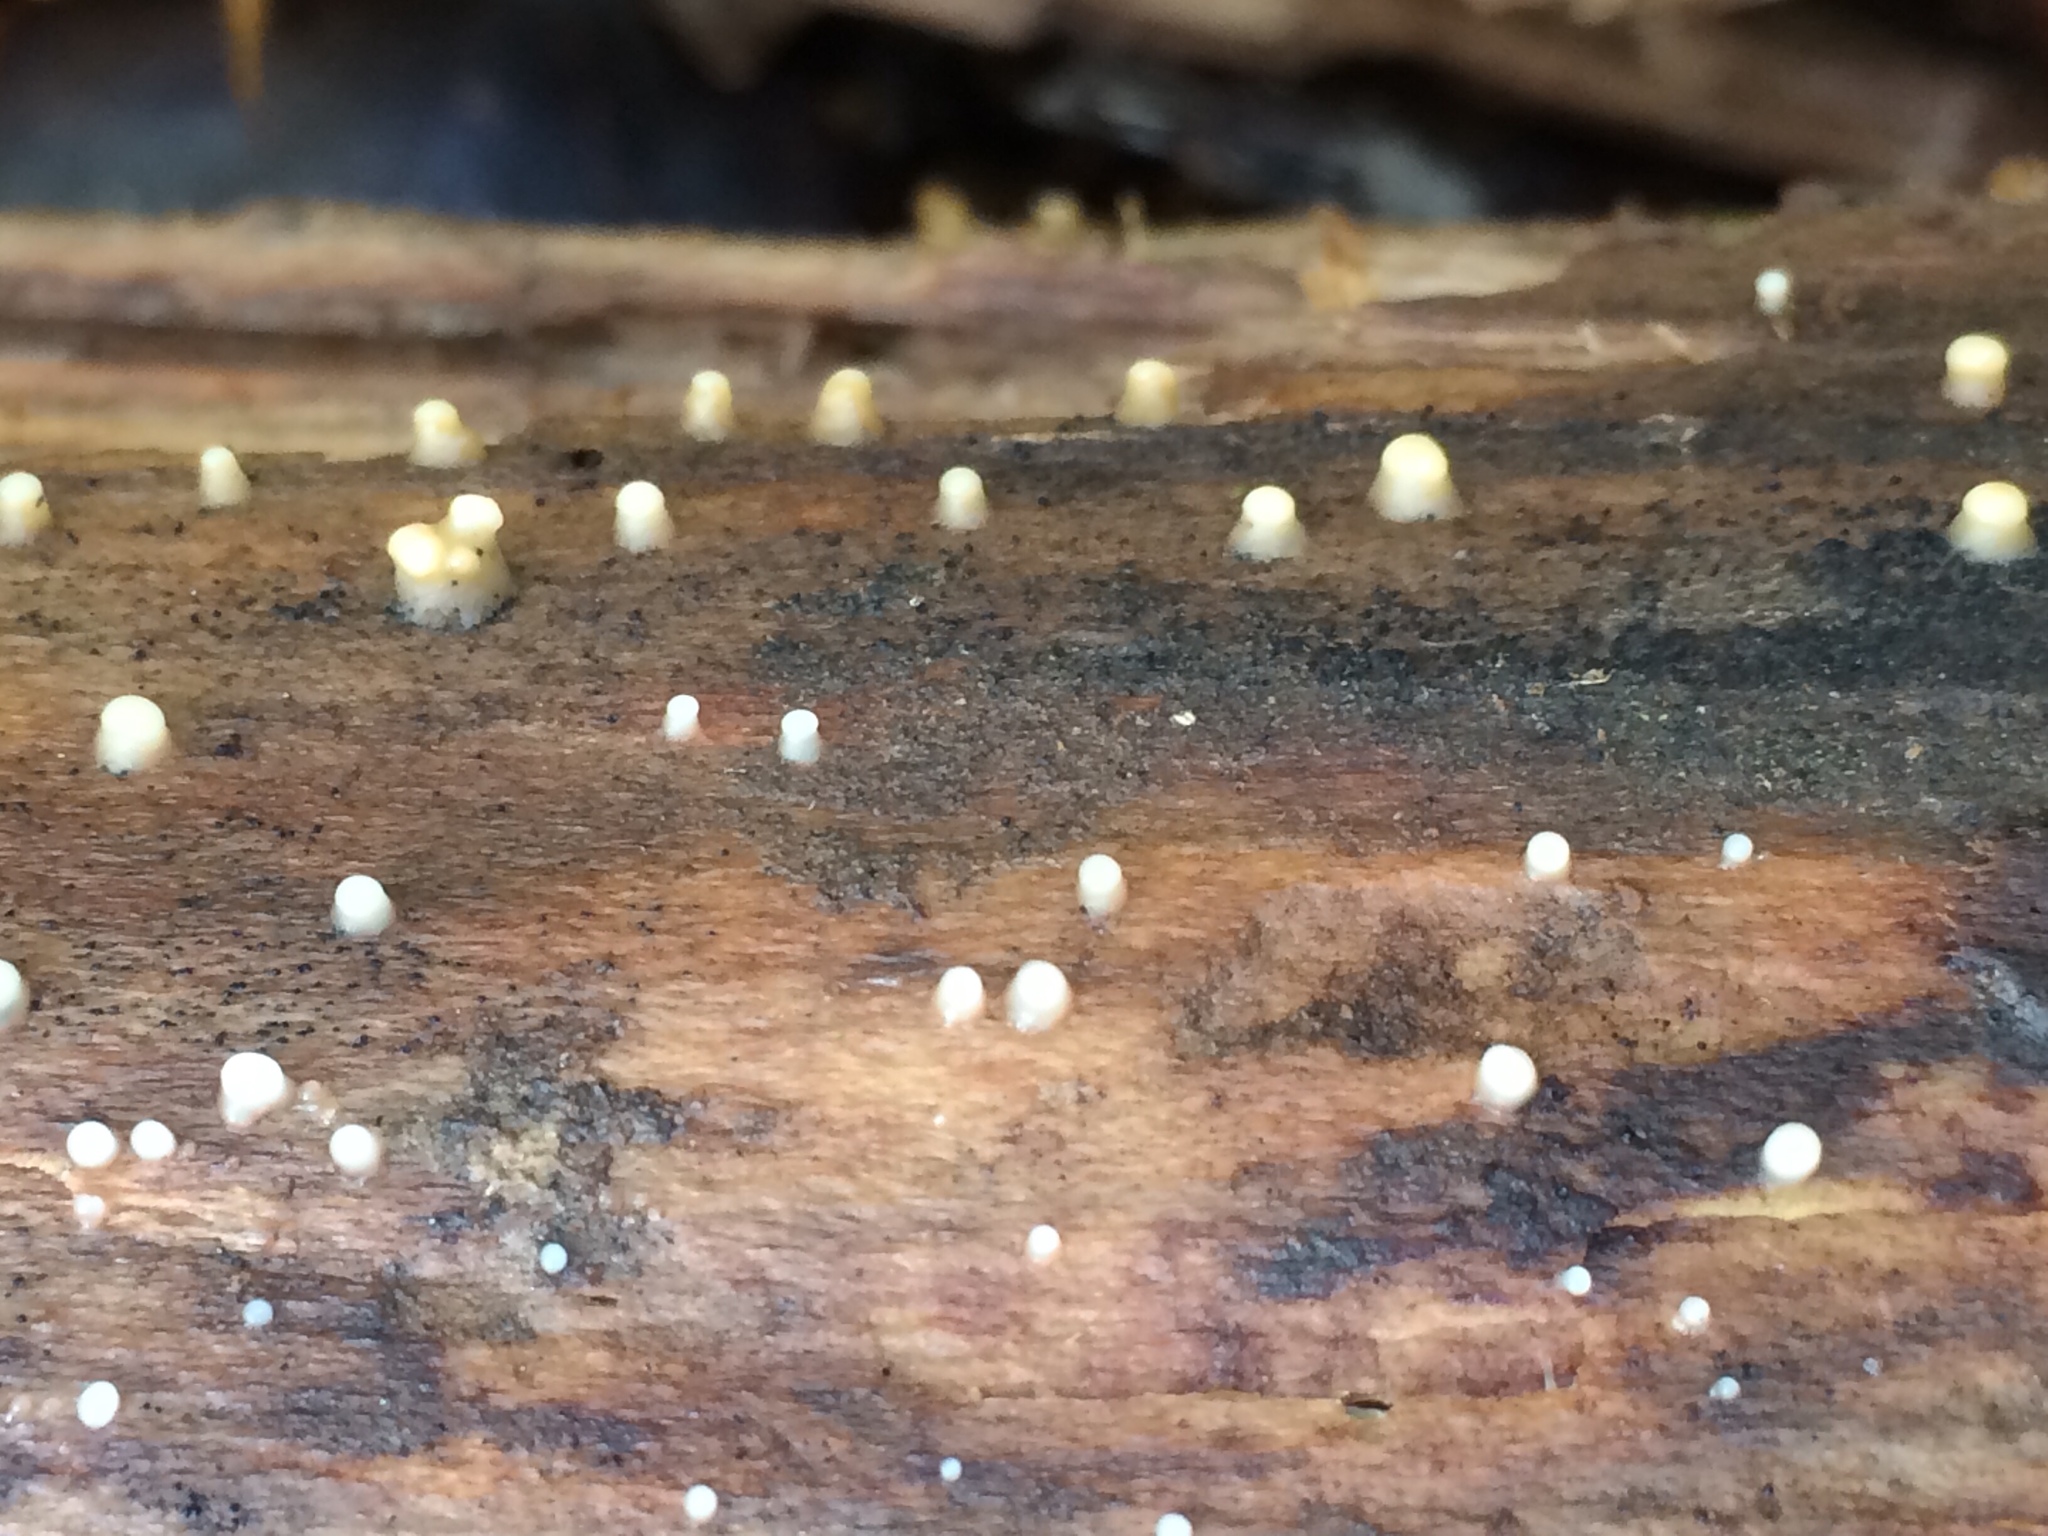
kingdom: Fungi
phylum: Basidiomycota
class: Atractiellomycetes
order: Atractiellales
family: Phleogenaceae
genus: Helicogloea
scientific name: Helicogloea compressa
